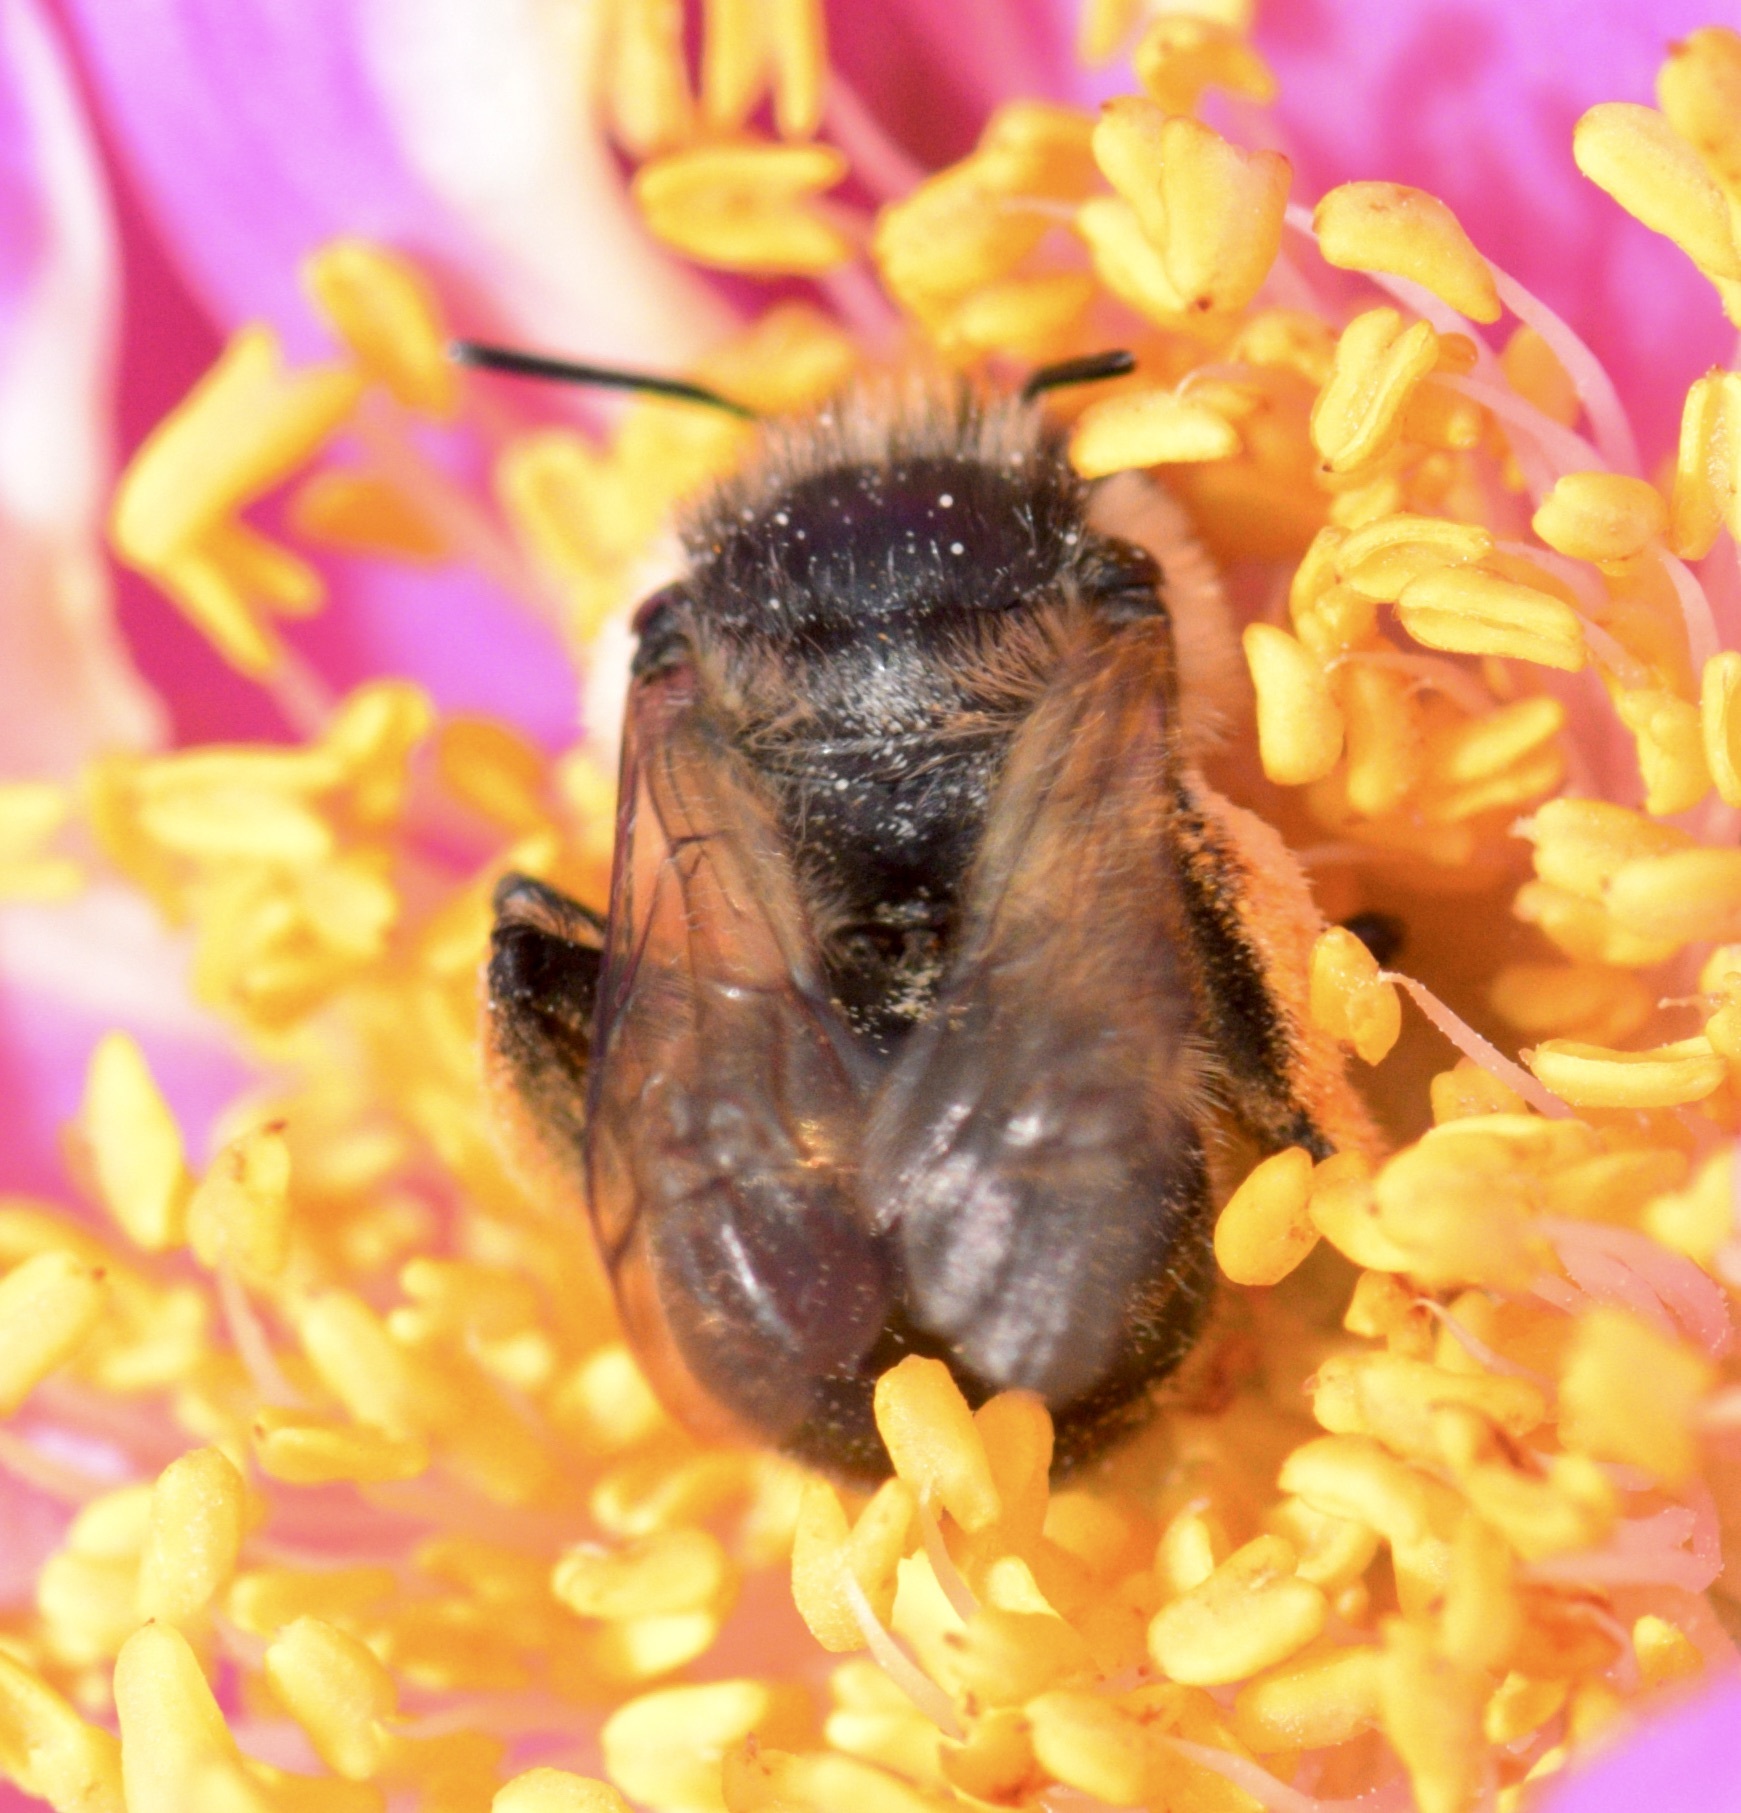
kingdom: Animalia
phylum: Arthropoda
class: Insecta
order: Hymenoptera
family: Apidae
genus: Anthophora
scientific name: Anthophora terminalis
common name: Orange-tipped wood-digger bee
